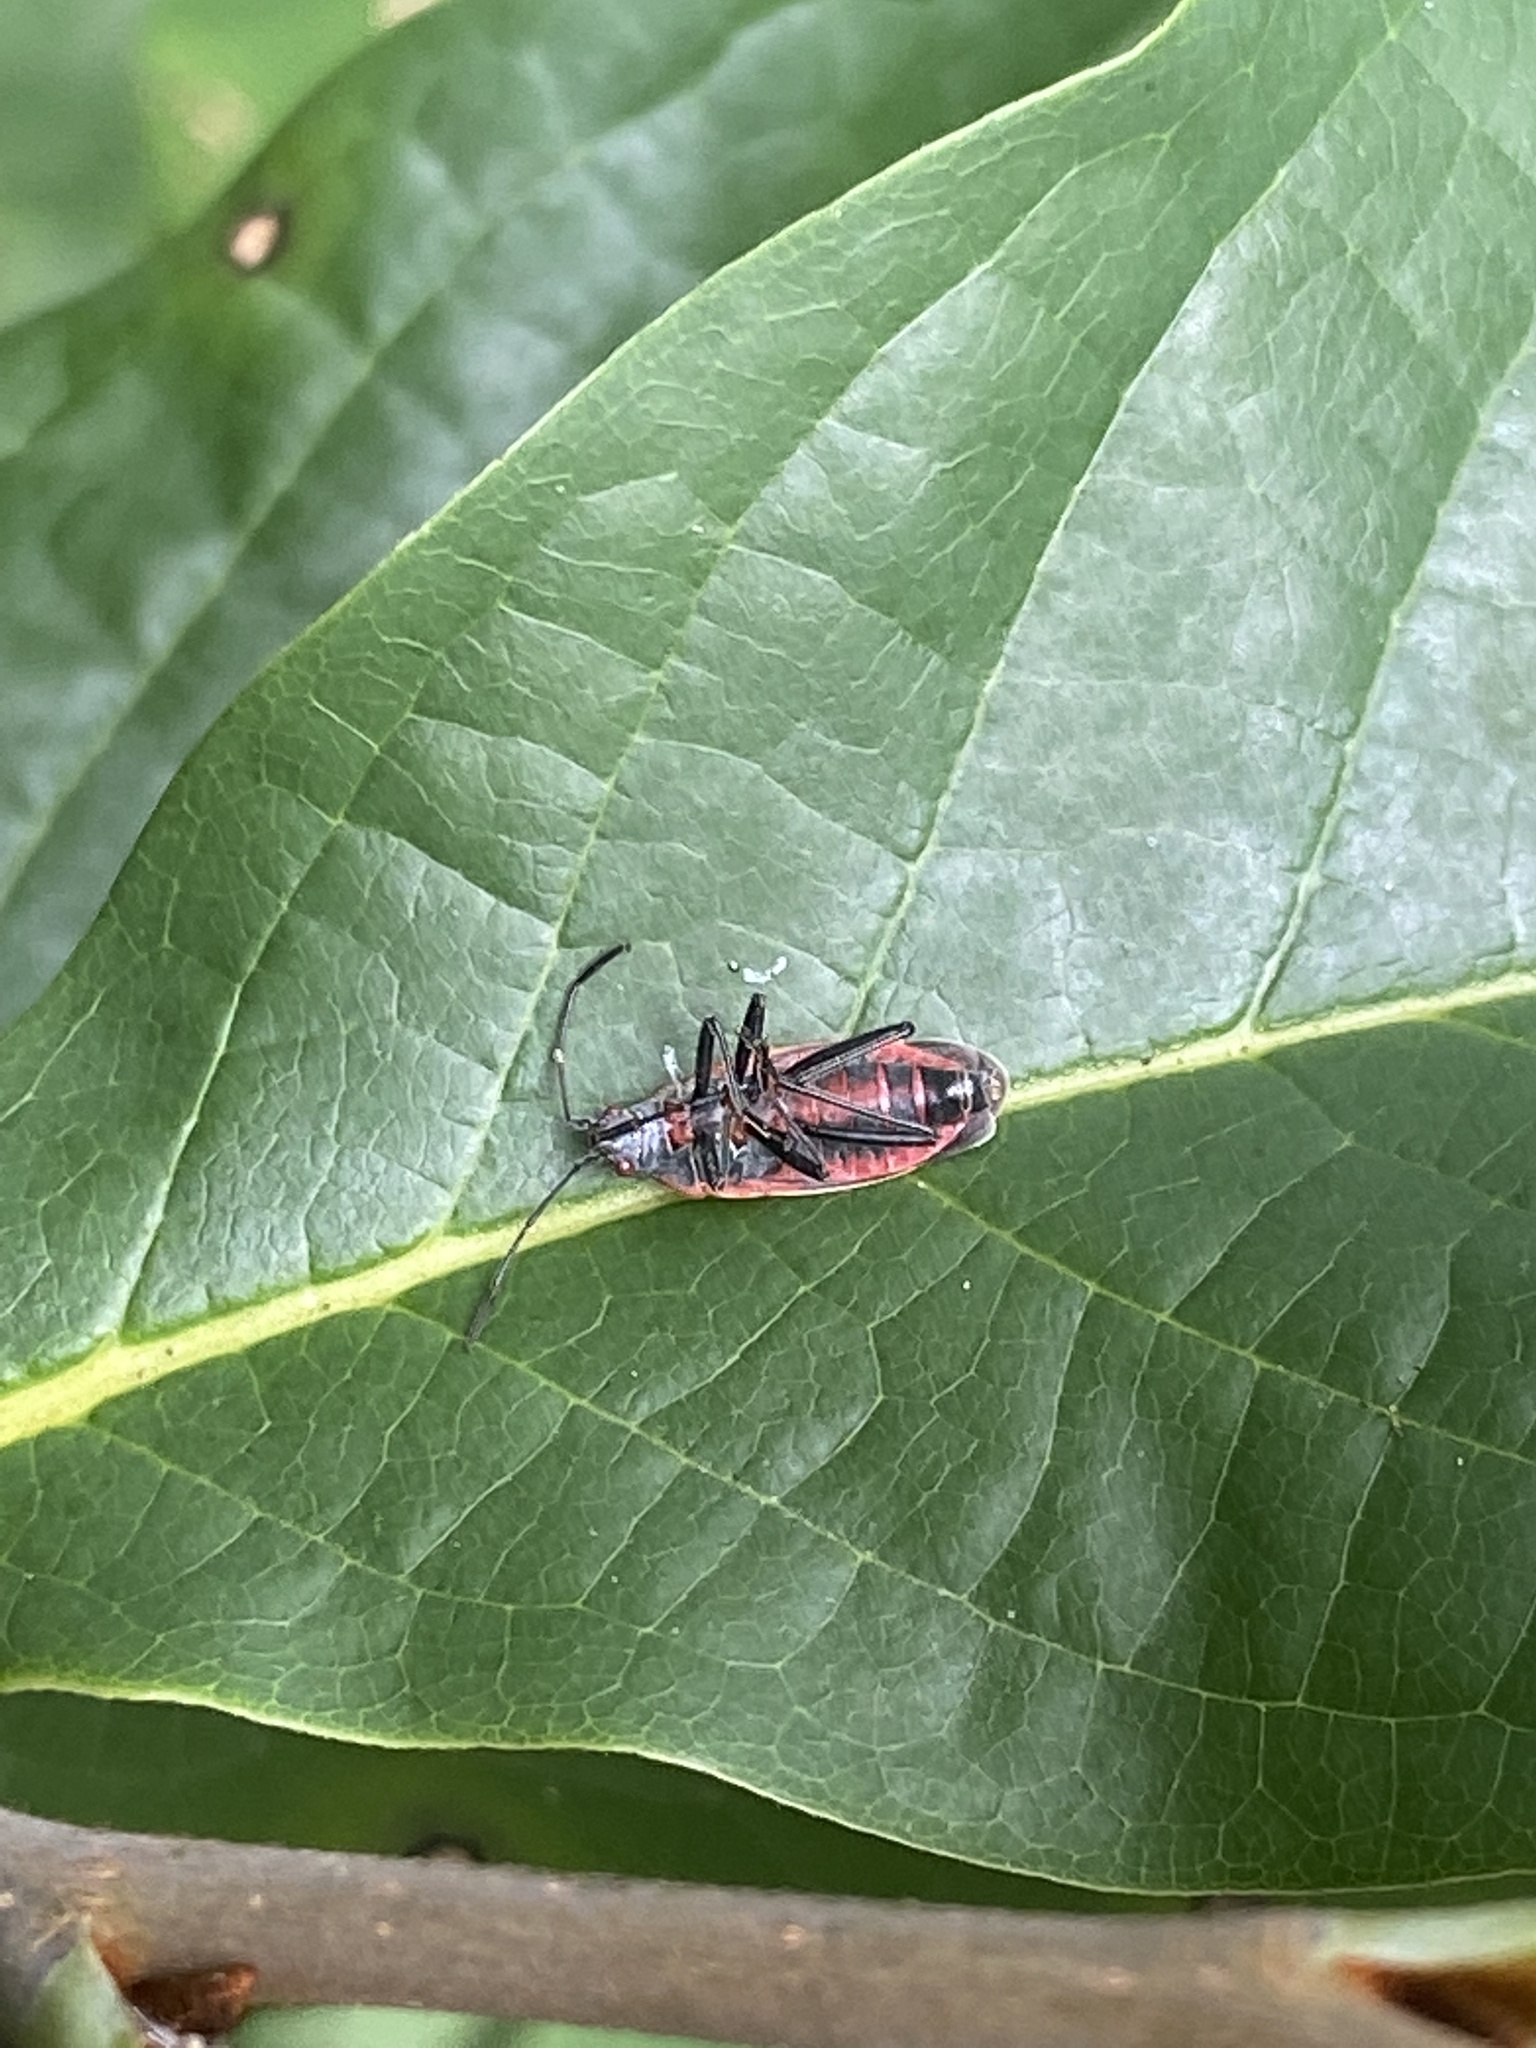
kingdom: Animalia
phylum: Arthropoda
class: Insecta
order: Hemiptera
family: Rhopalidae
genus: Boisea
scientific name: Boisea trivittata
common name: Boxelder bug
